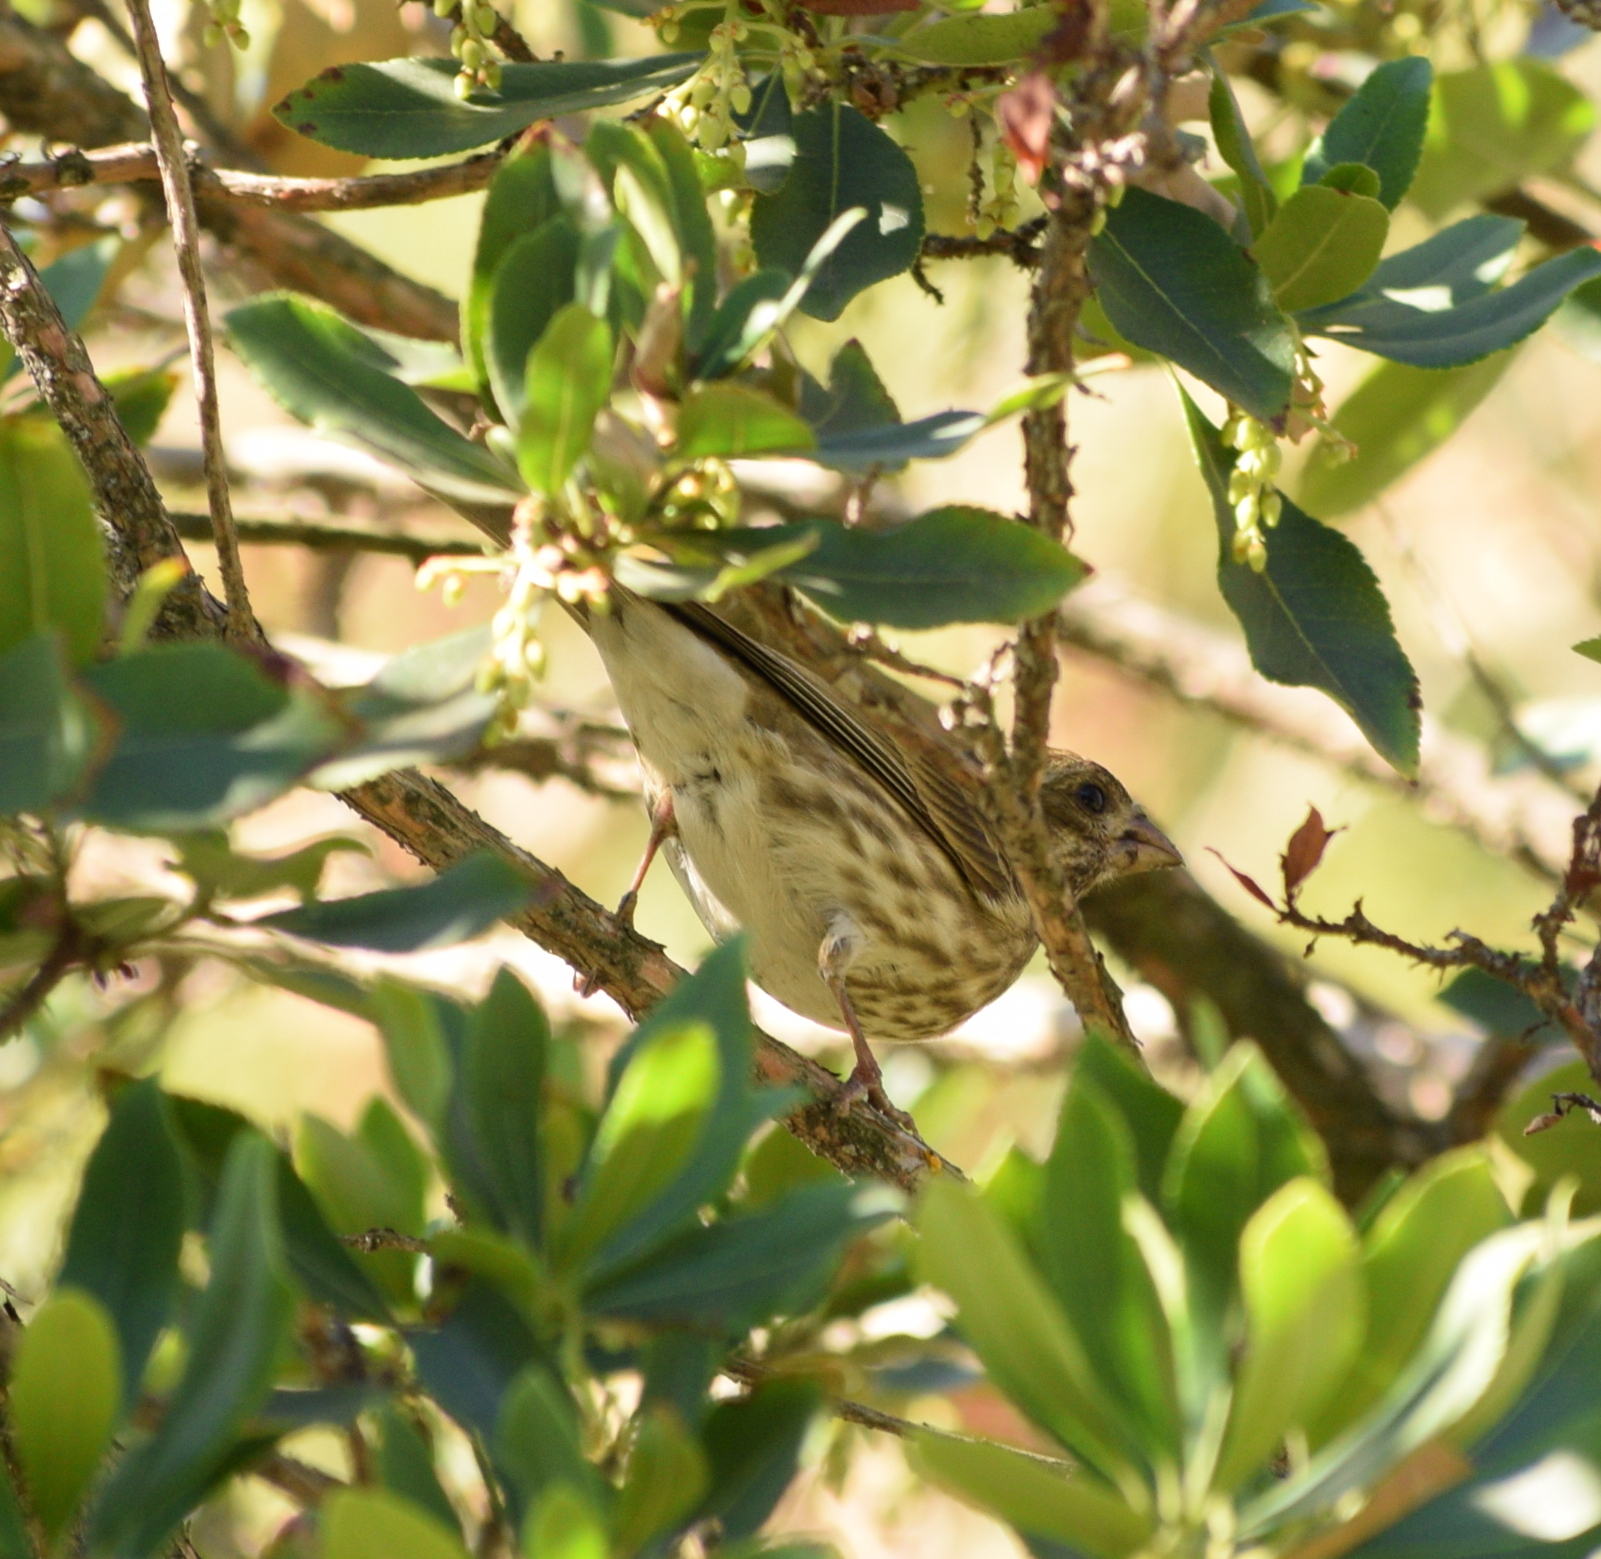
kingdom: Animalia
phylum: Chordata
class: Aves
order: Passeriformes
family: Fringillidae
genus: Haemorhous
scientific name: Haemorhous purpureus
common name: Purple finch
